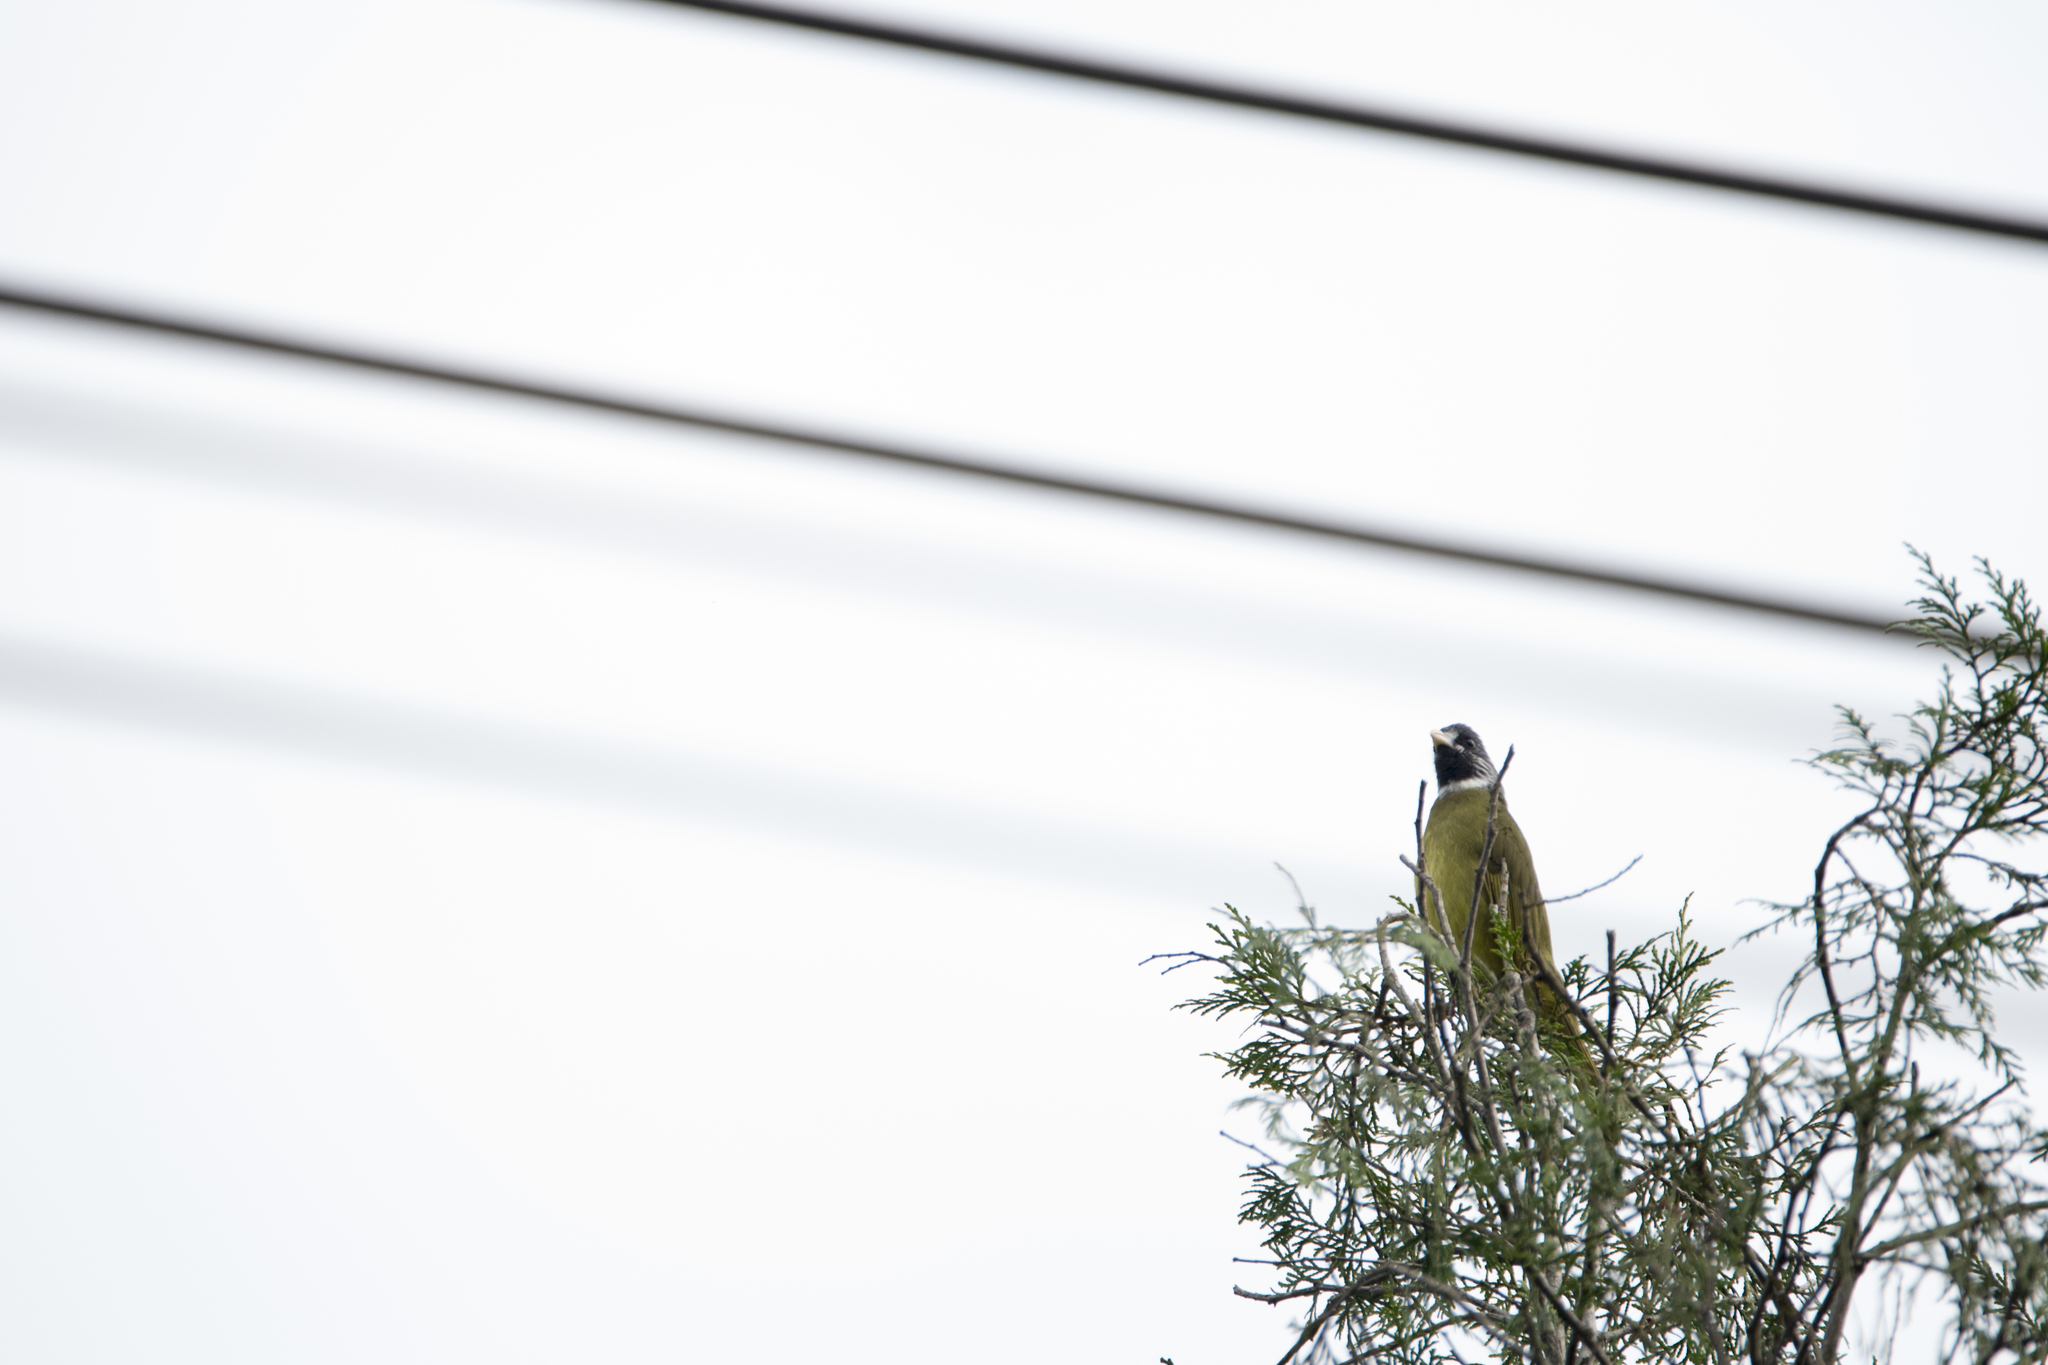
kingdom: Animalia
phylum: Chordata
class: Aves
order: Passeriformes
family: Pycnonotidae
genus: Spizixos
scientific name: Spizixos semitorques
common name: Collared finchbill
